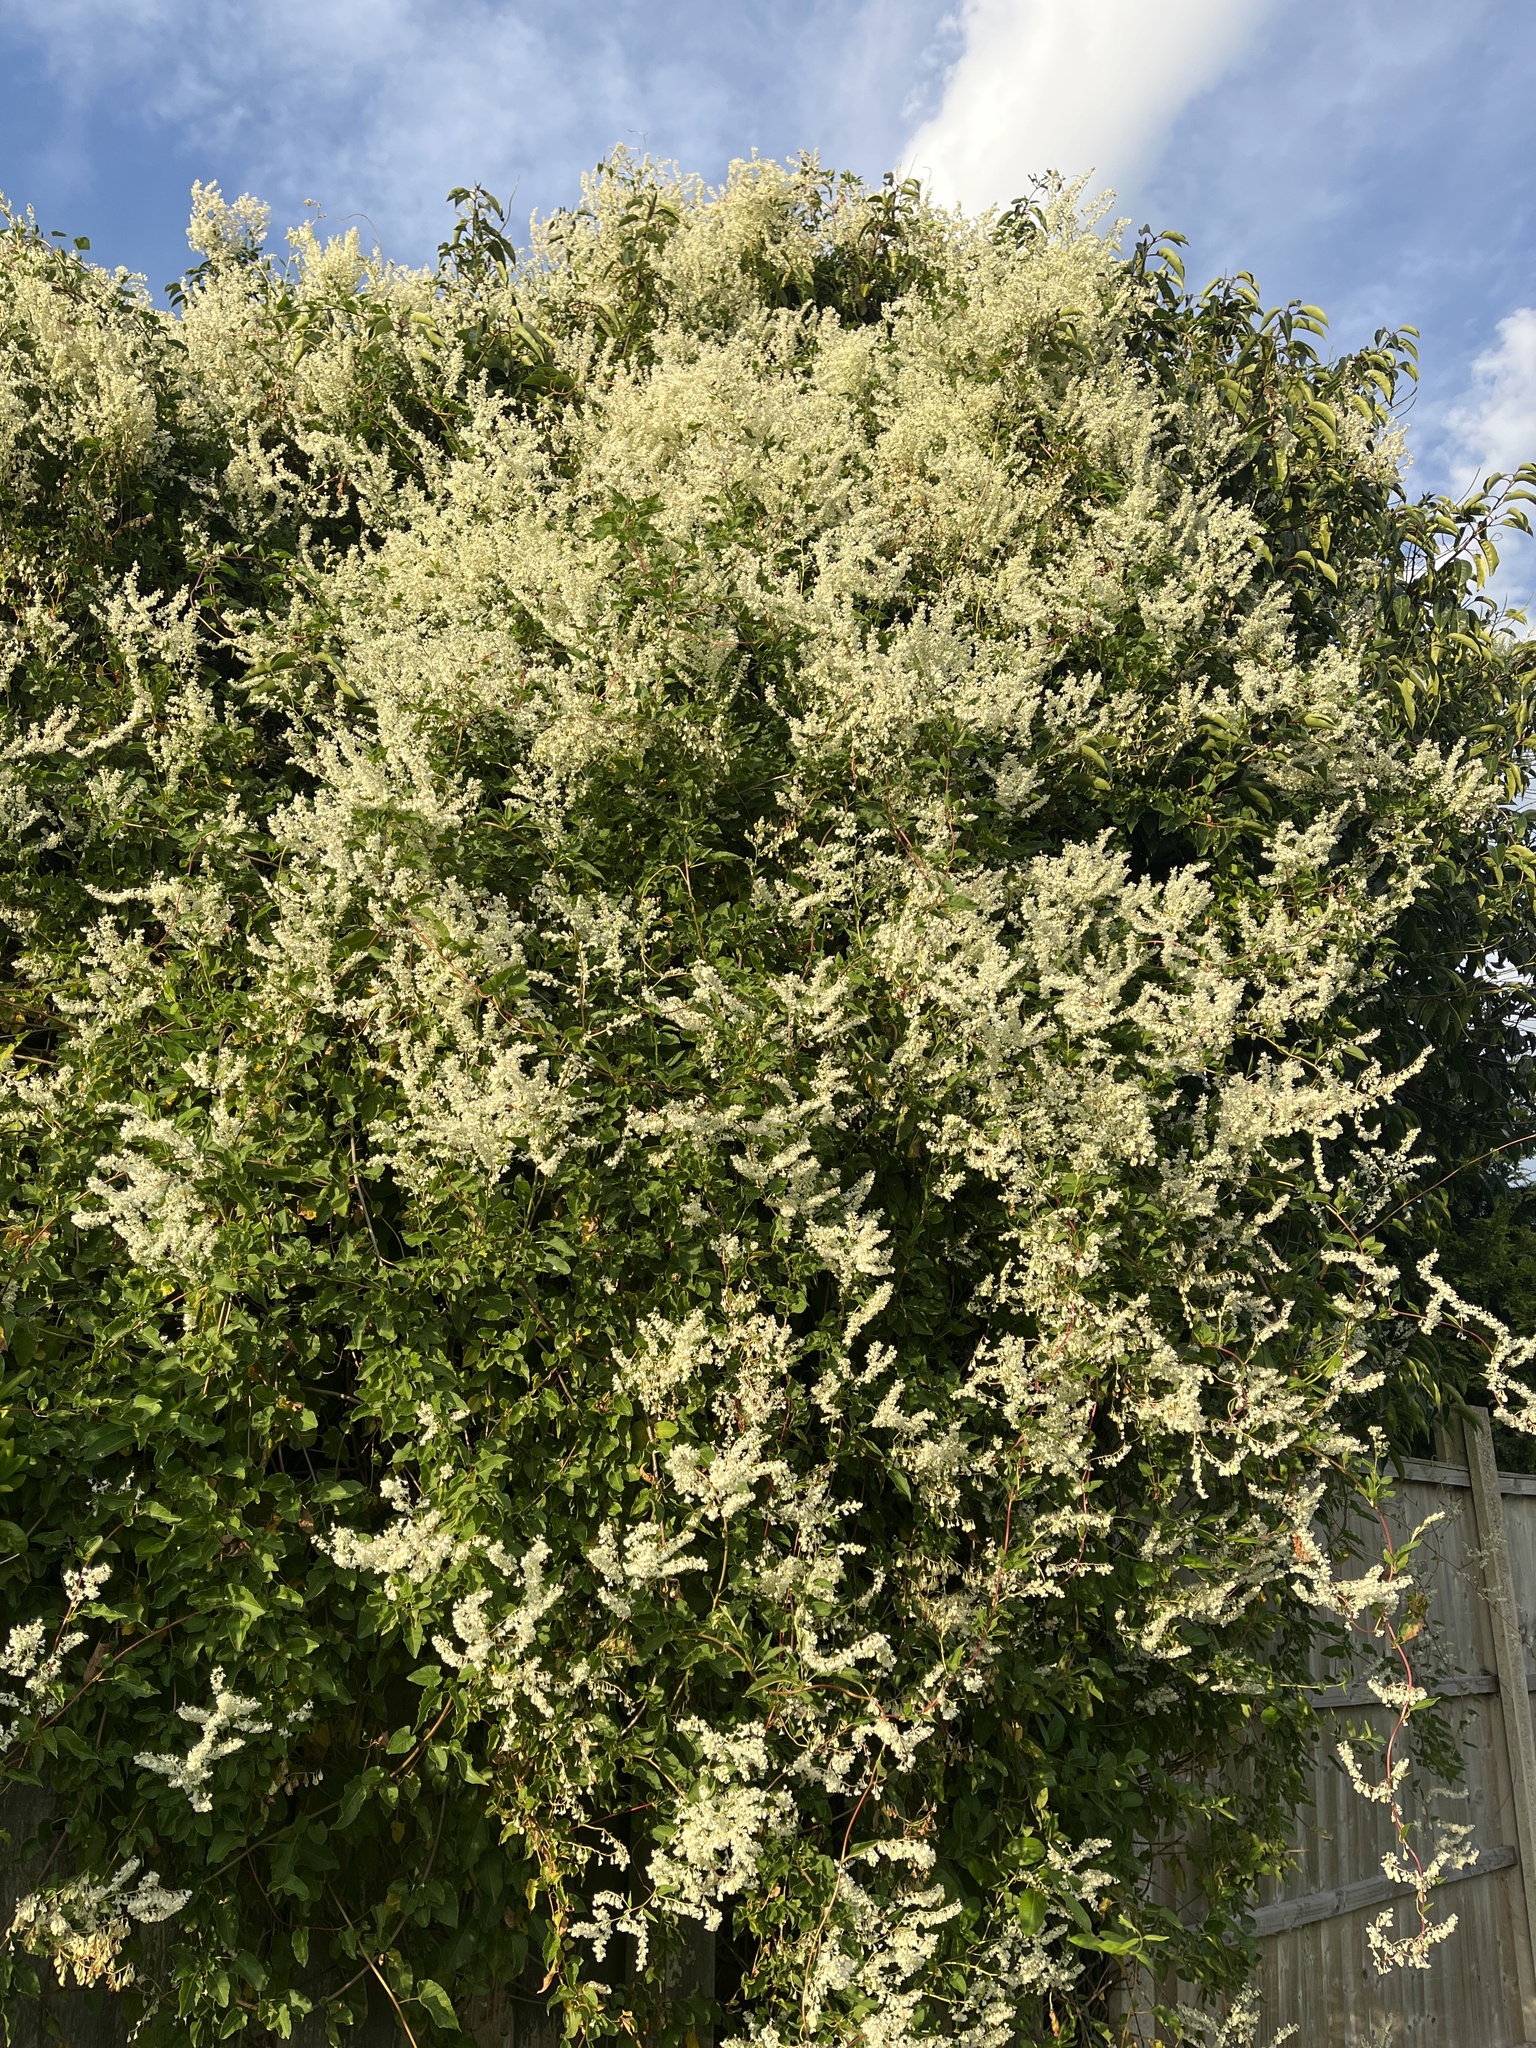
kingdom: Plantae
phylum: Tracheophyta
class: Magnoliopsida
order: Caryophyllales
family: Polygonaceae
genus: Fallopia
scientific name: Fallopia baldschuanica
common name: Russian-vine
